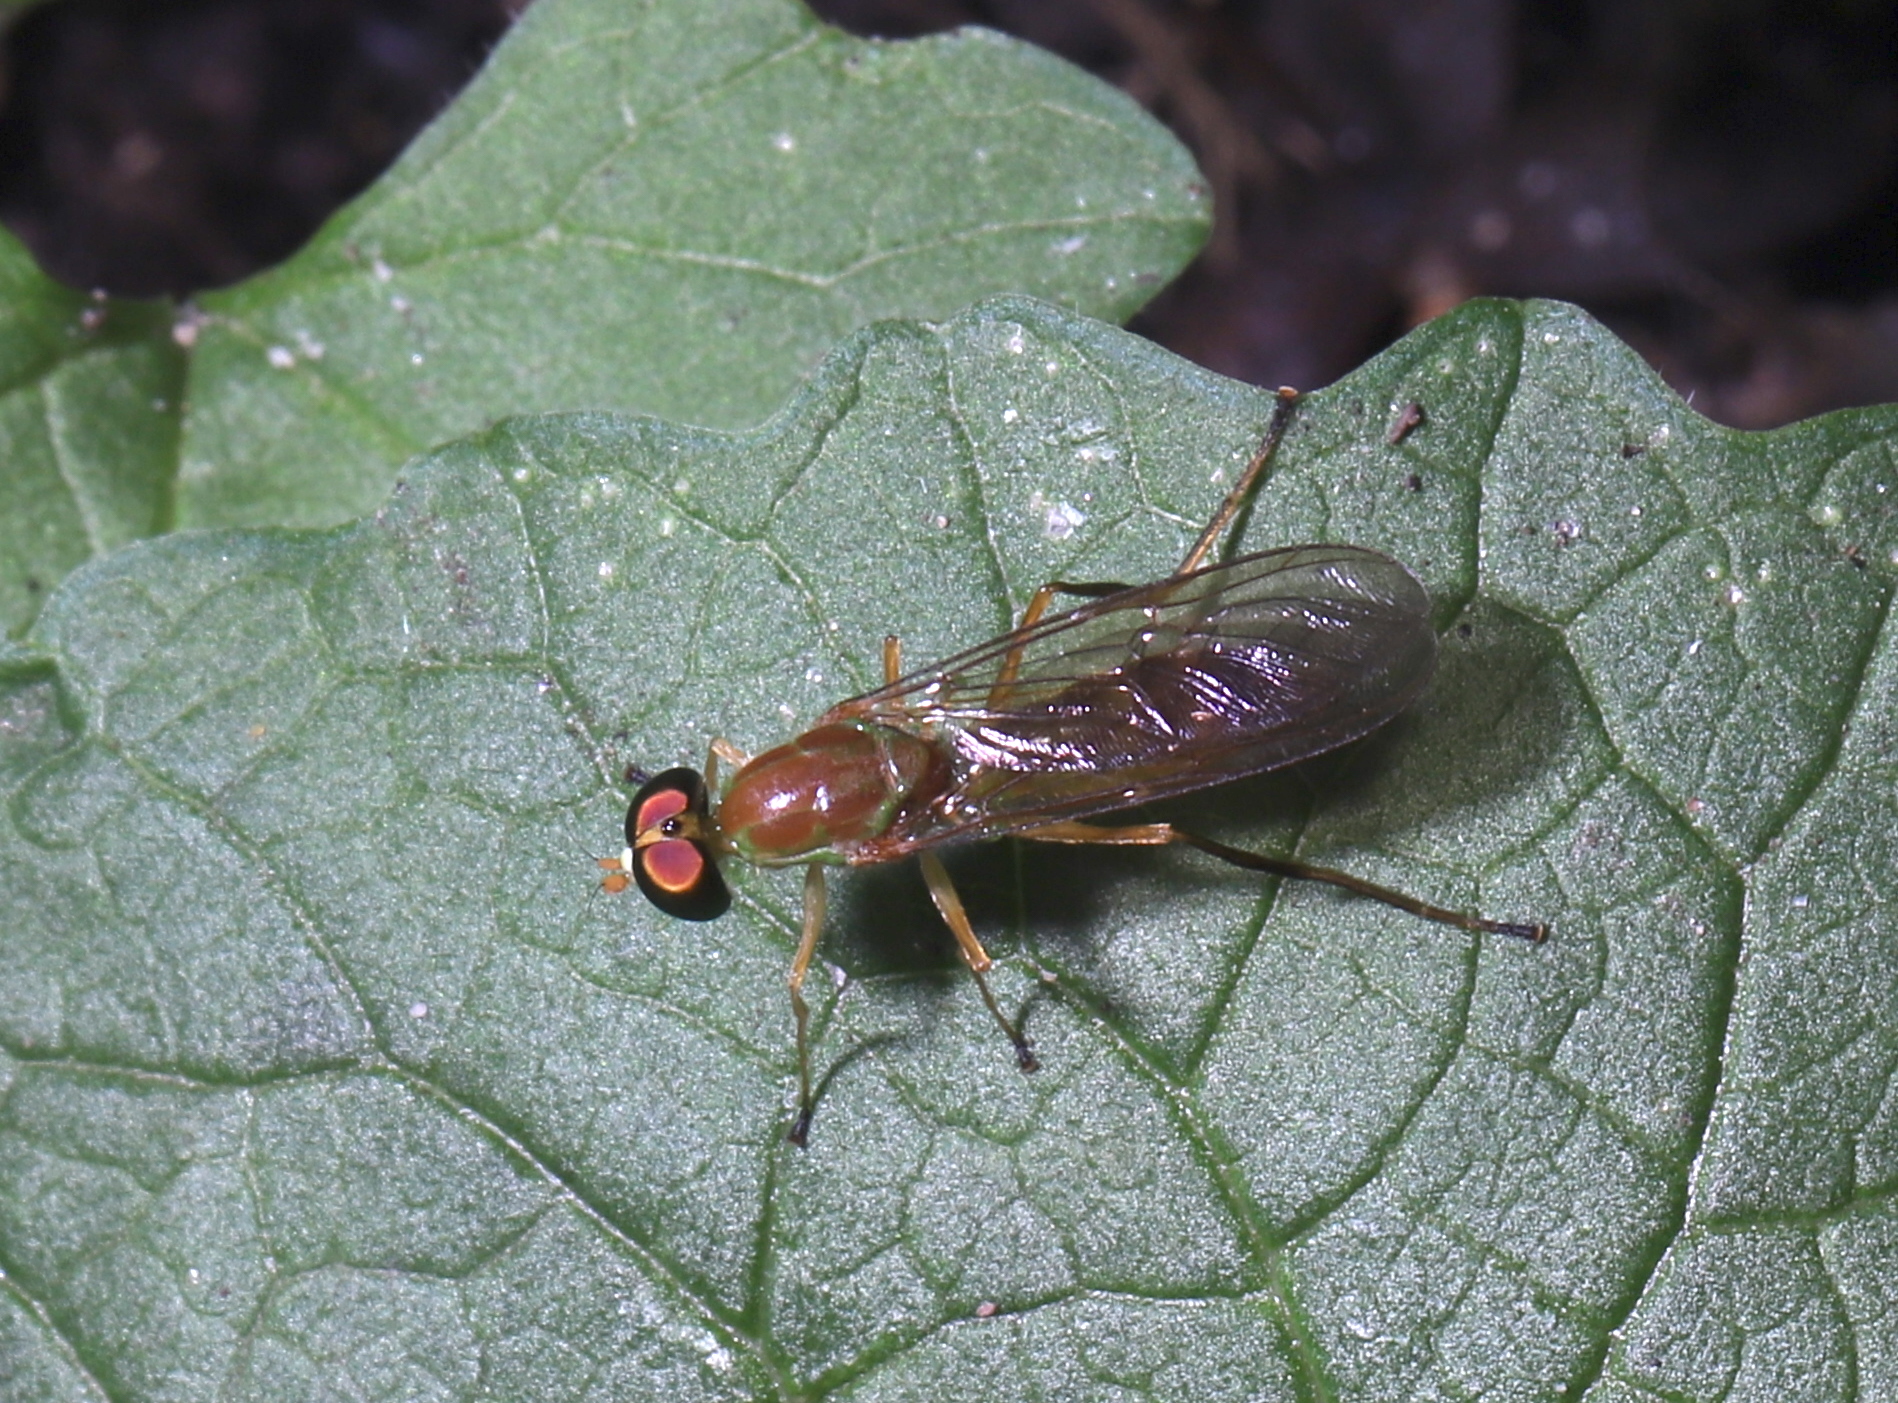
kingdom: Animalia
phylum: Arthropoda
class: Insecta
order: Diptera
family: Stratiomyidae
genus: Ptecticus
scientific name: Ptecticus trivittatus
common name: Compost fly
